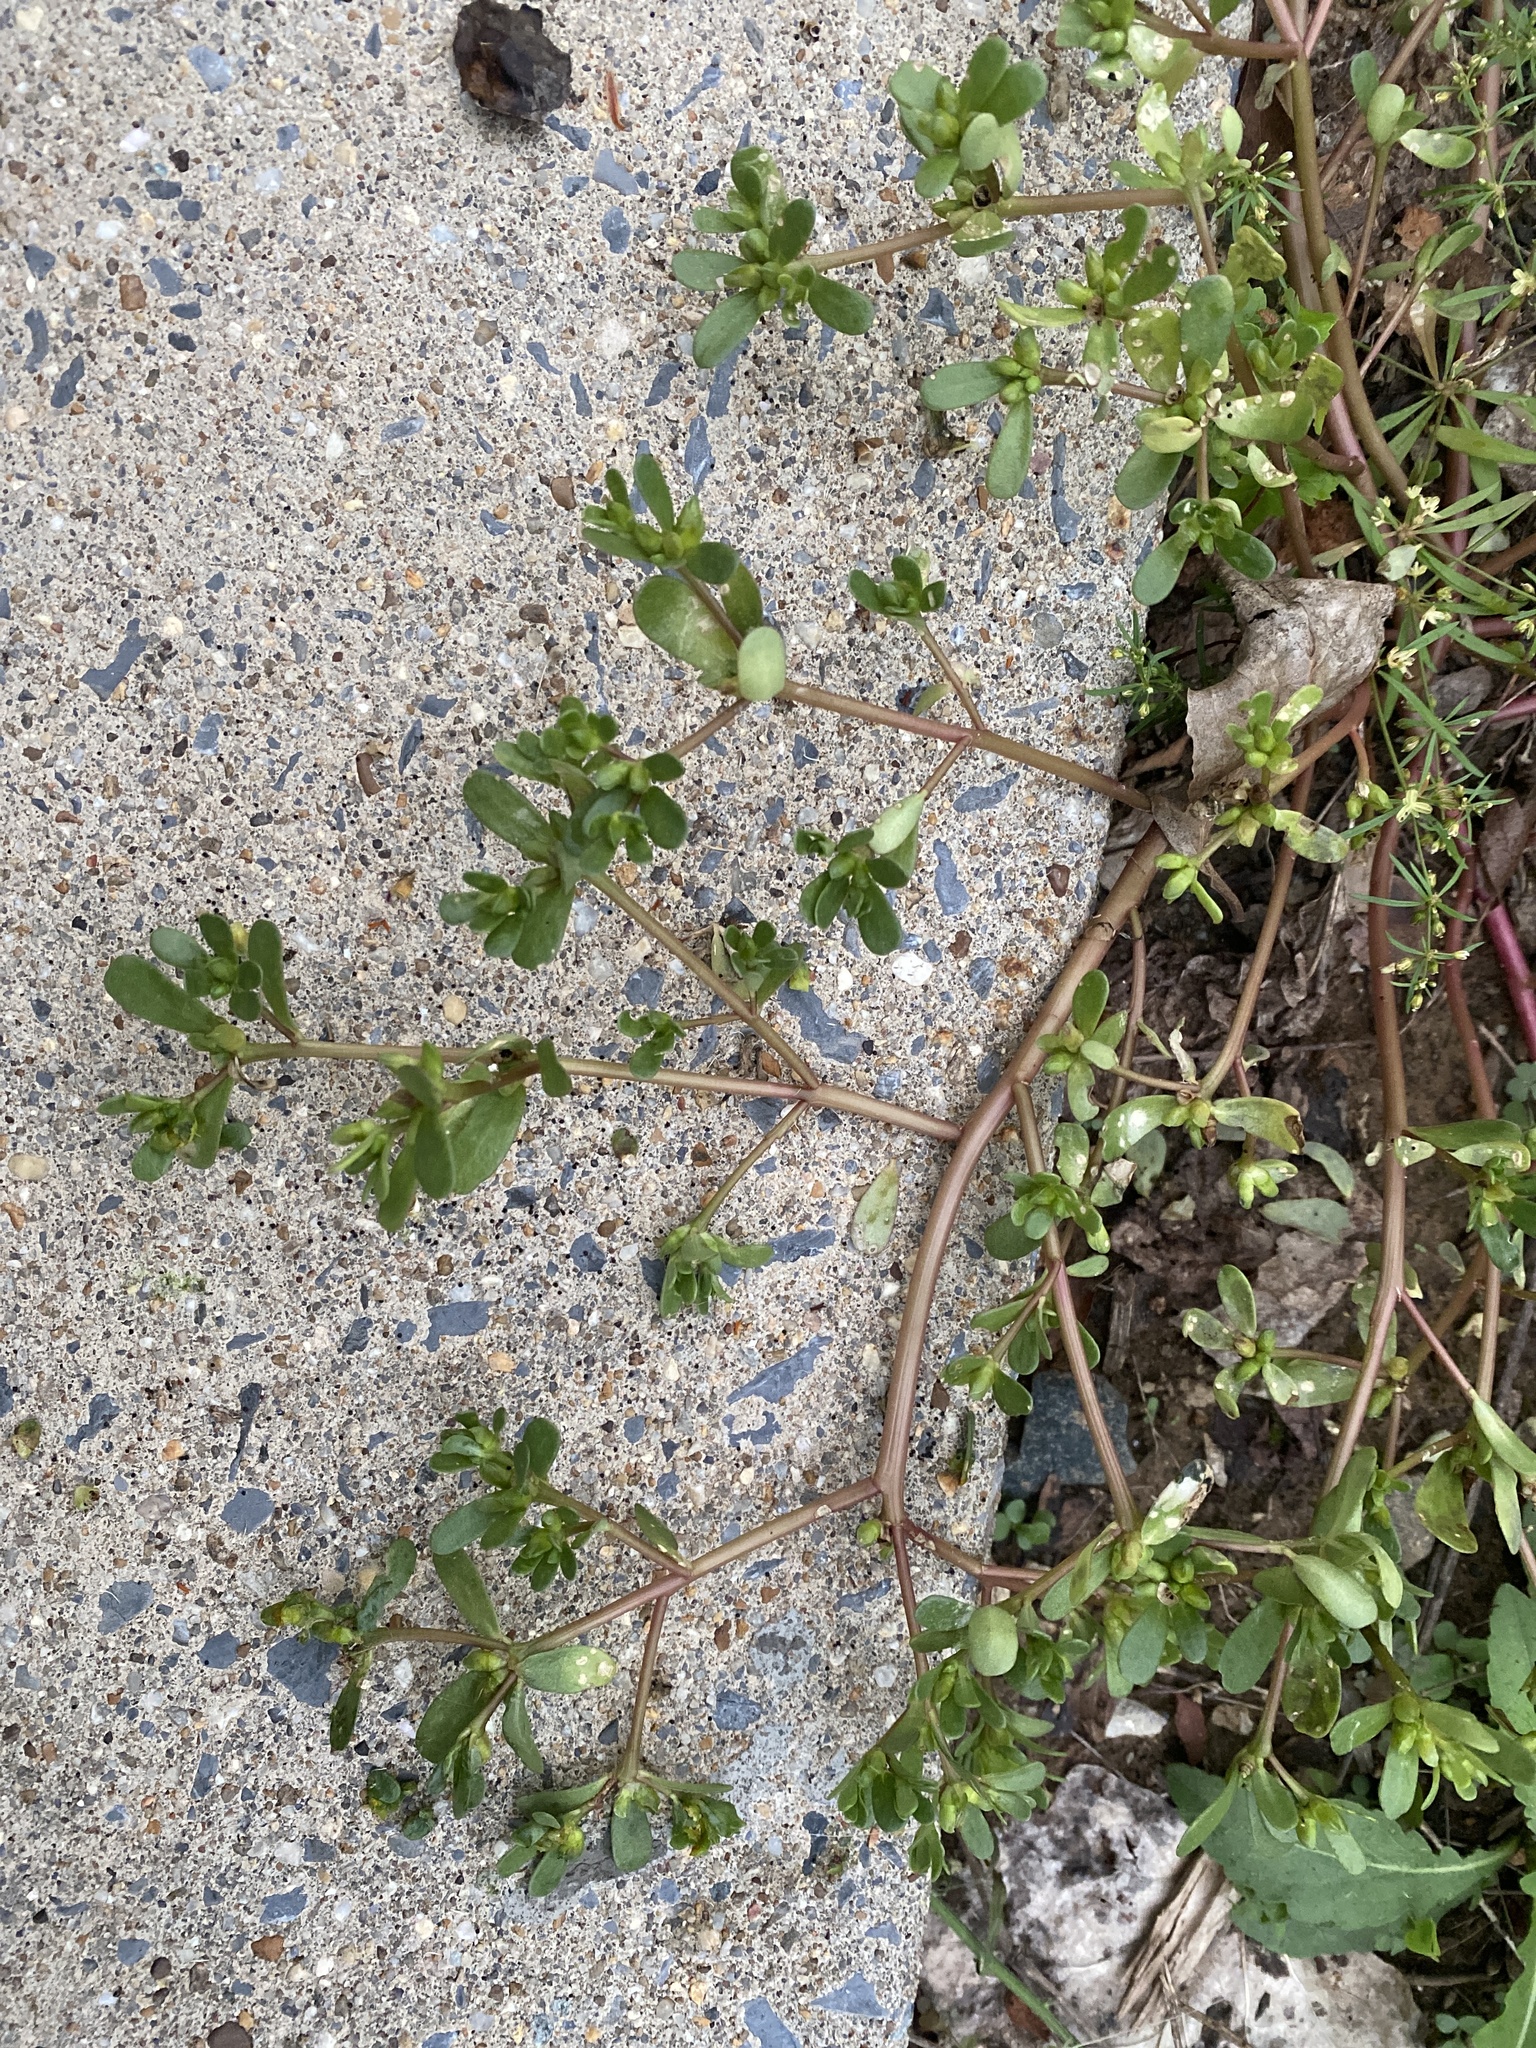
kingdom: Plantae
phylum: Tracheophyta
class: Magnoliopsida
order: Caryophyllales
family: Portulacaceae
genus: Portulaca
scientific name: Portulaca oleracea
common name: Common purslane
